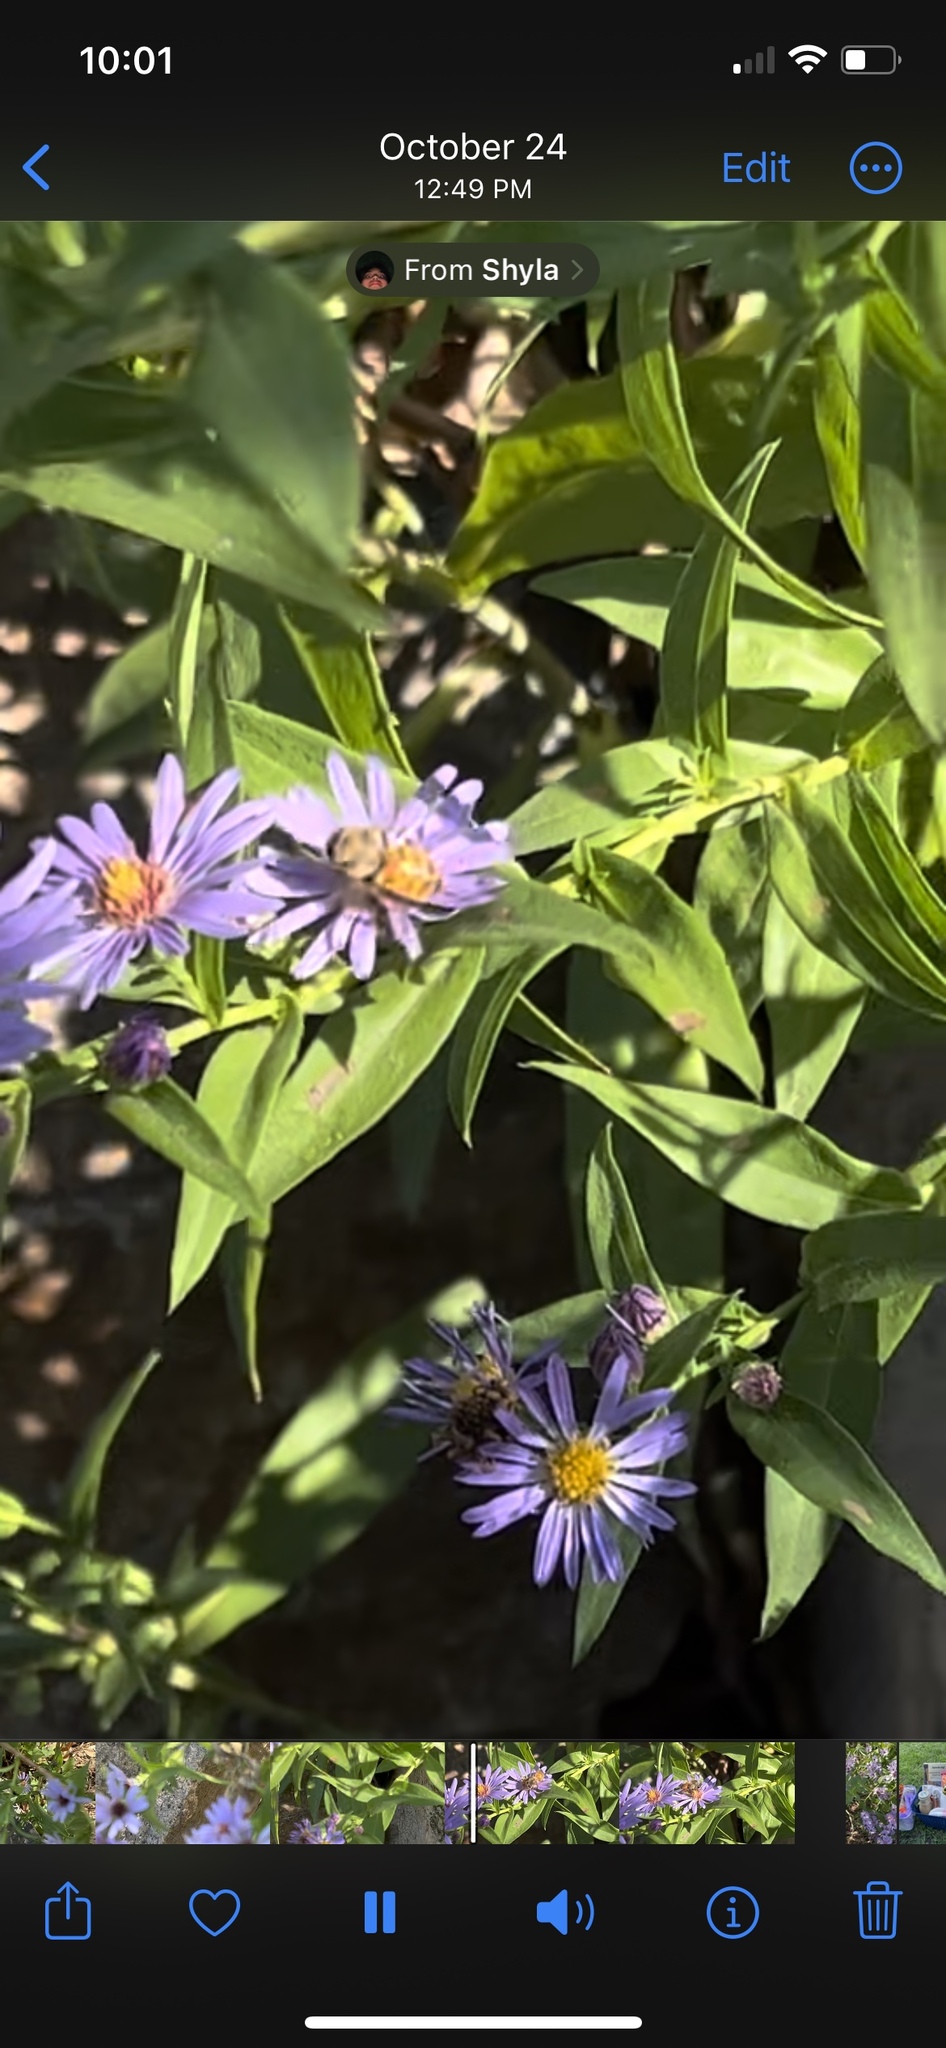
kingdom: Animalia
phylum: Arthropoda
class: Insecta
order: Hymenoptera
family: Apidae
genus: Apis
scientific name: Apis mellifera
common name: Honey bee
